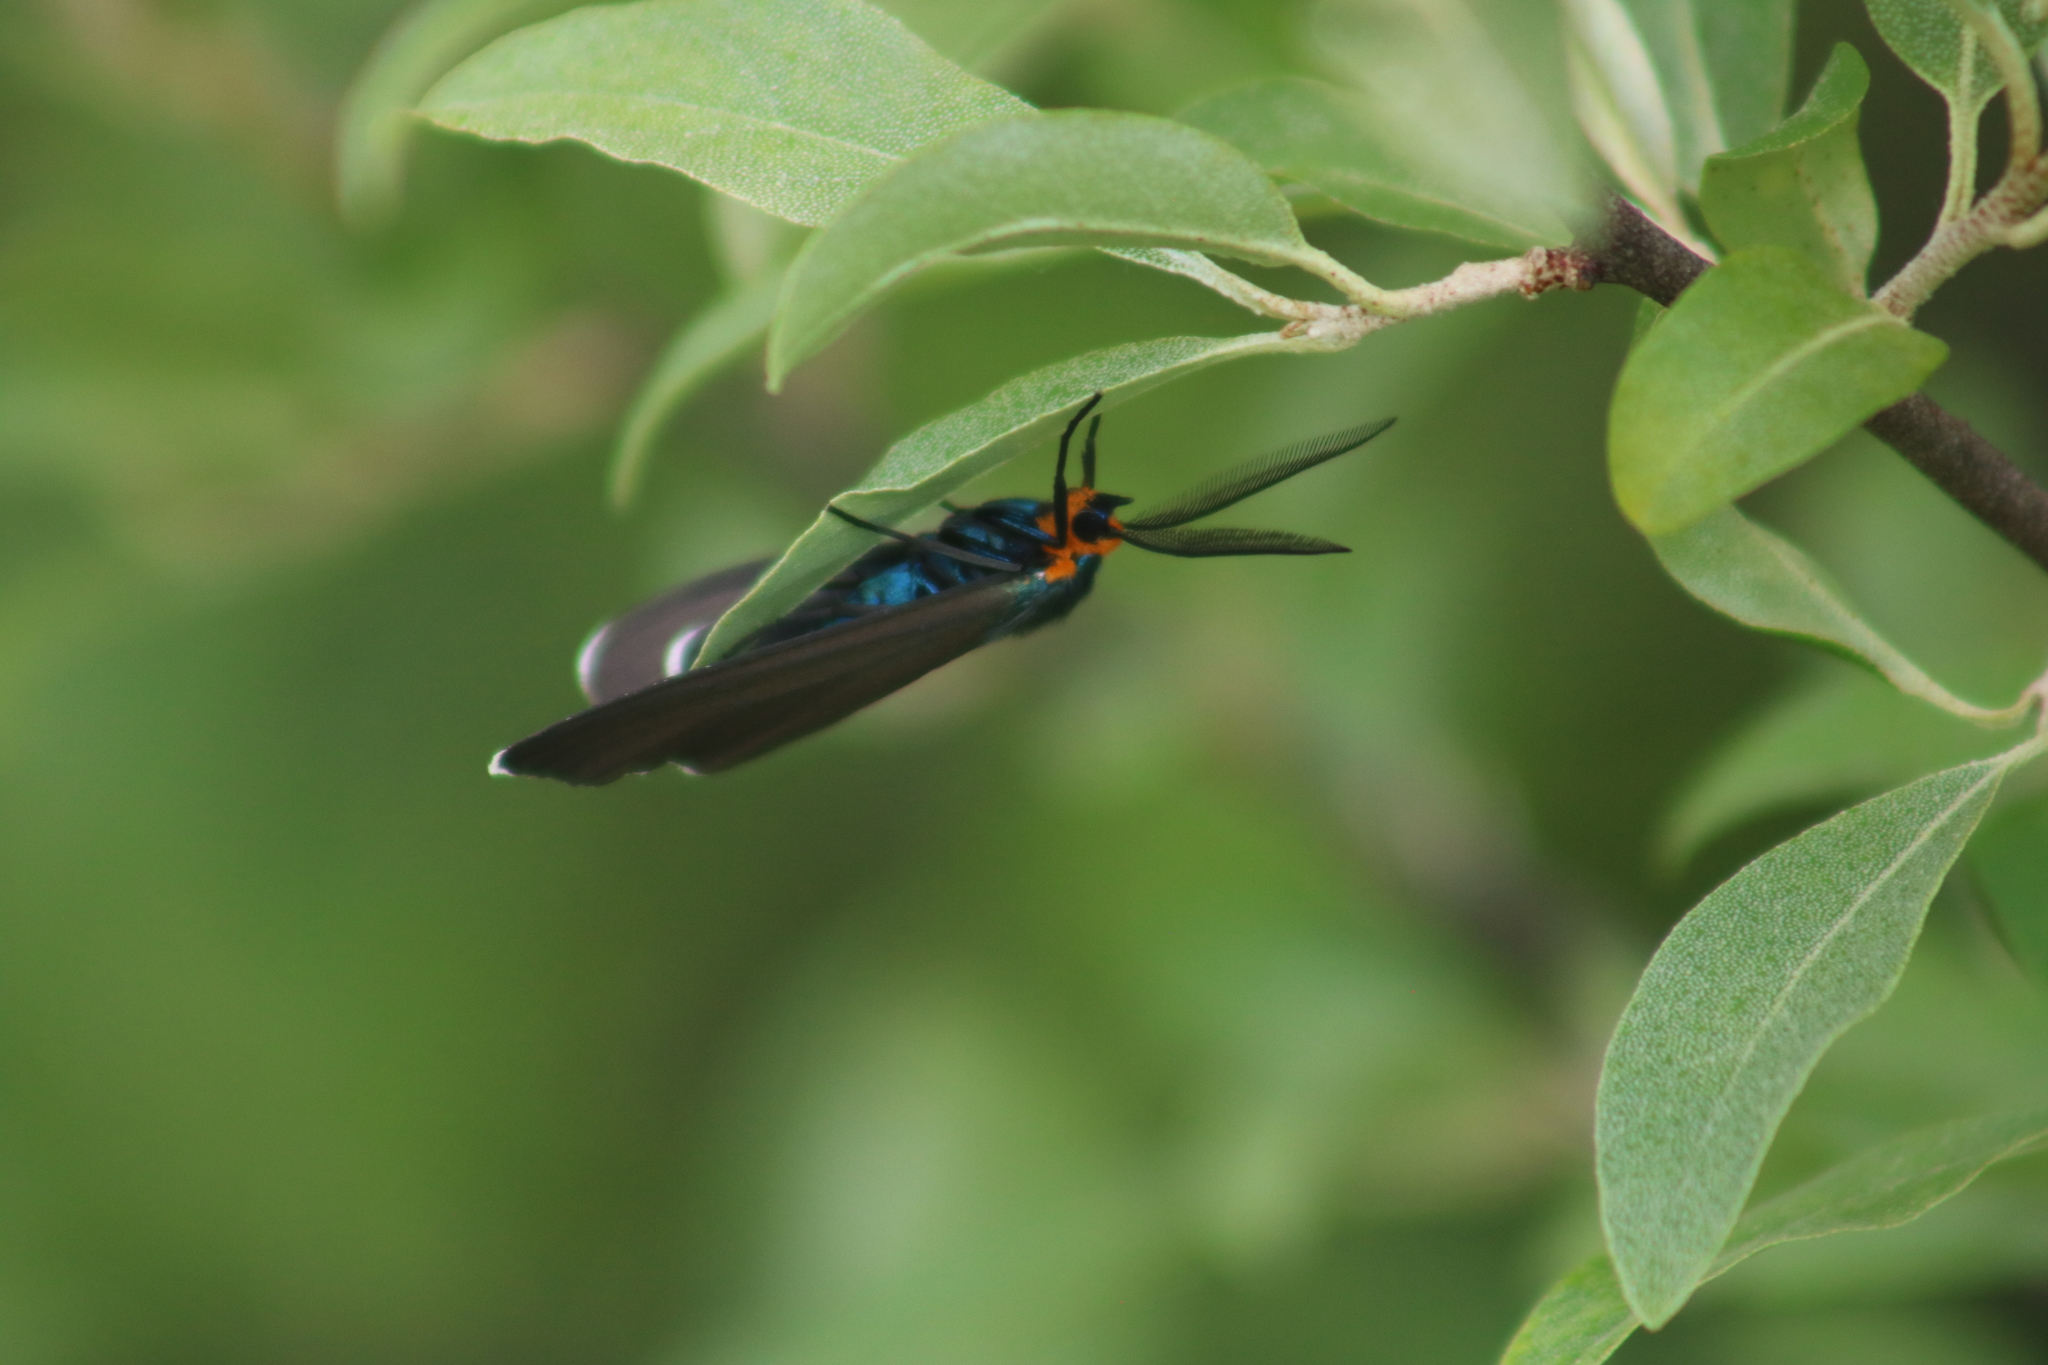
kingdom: Animalia
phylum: Arthropoda
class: Insecta
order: Lepidoptera
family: Erebidae
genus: Ctenucha
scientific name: Ctenucha virginica
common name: Virginia ctenucha moth
